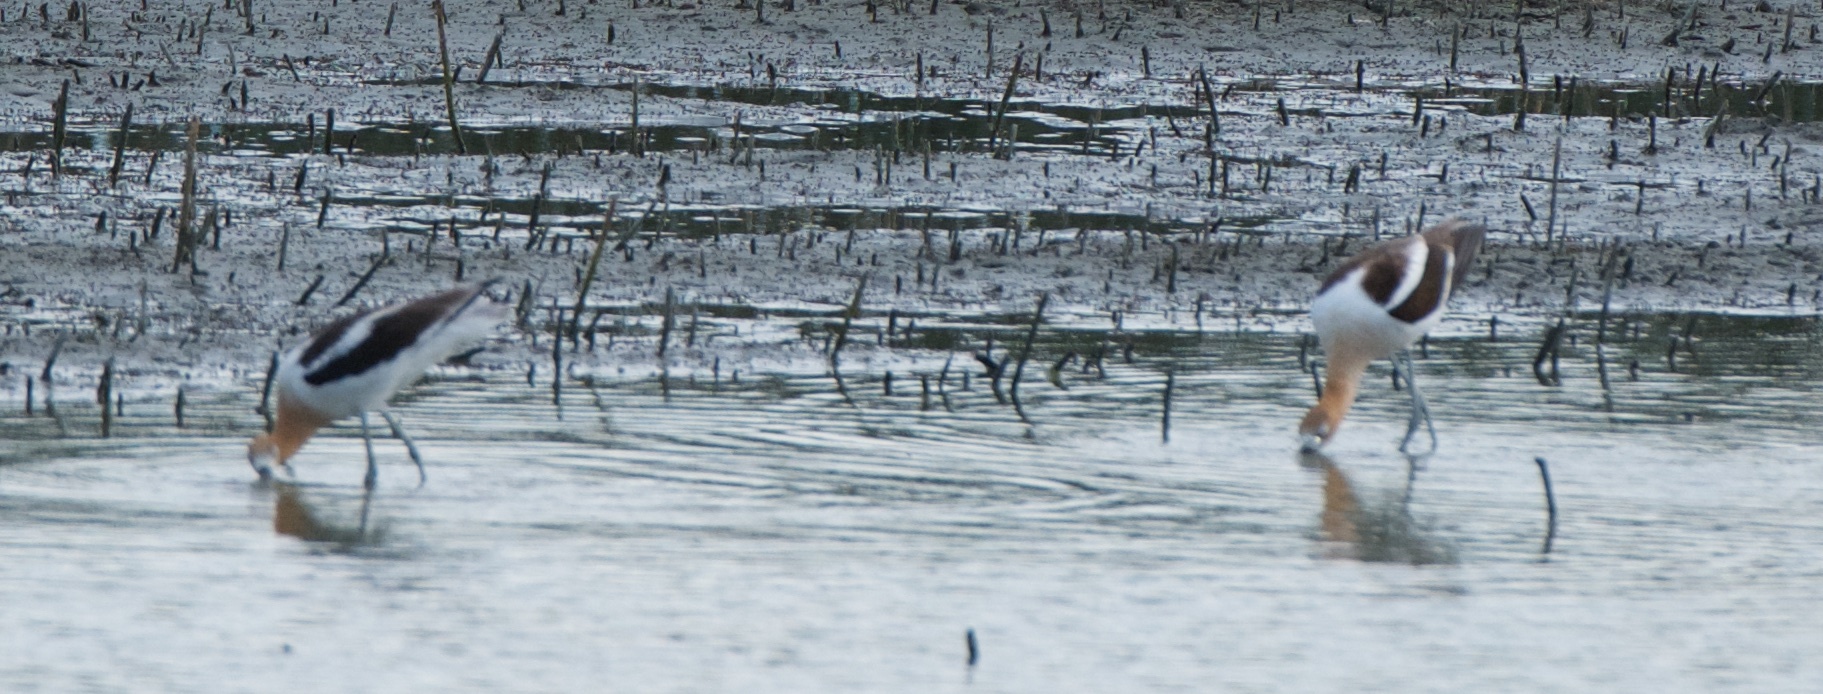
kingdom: Animalia
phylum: Chordata
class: Aves
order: Charadriiformes
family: Recurvirostridae
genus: Recurvirostra
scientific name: Recurvirostra americana
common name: American avocet
